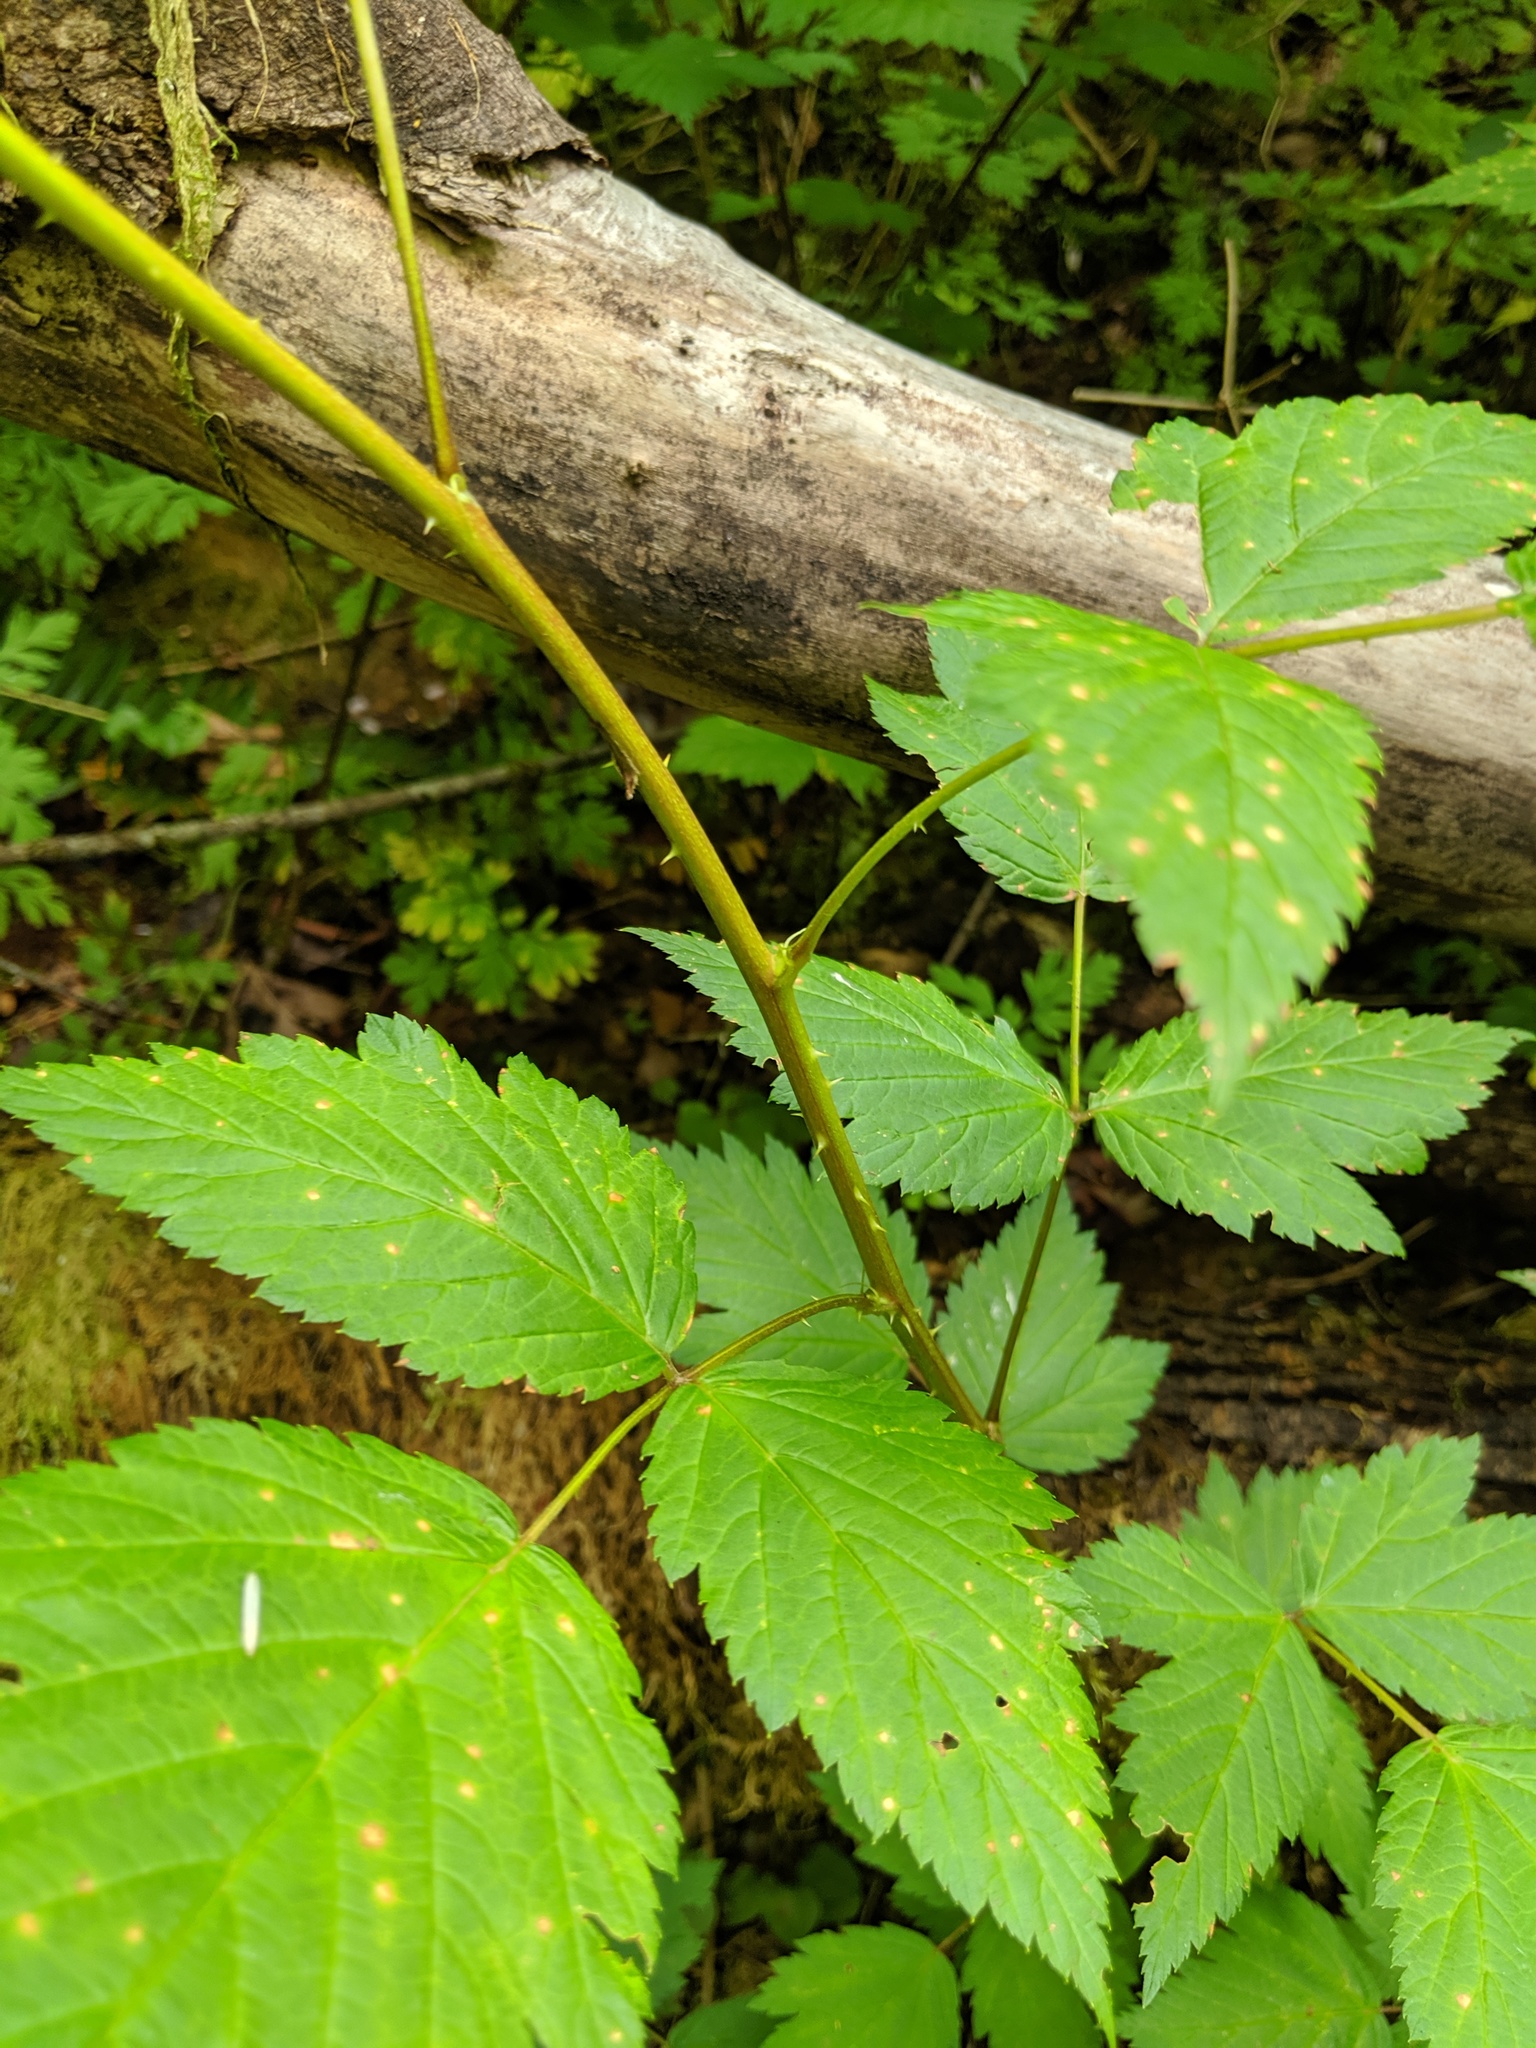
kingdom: Plantae
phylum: Tracheophyta
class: Magnoliopsida
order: Rosales
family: Rosaceae
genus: Rubus
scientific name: Rubus spectabilis
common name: Salmonberry
